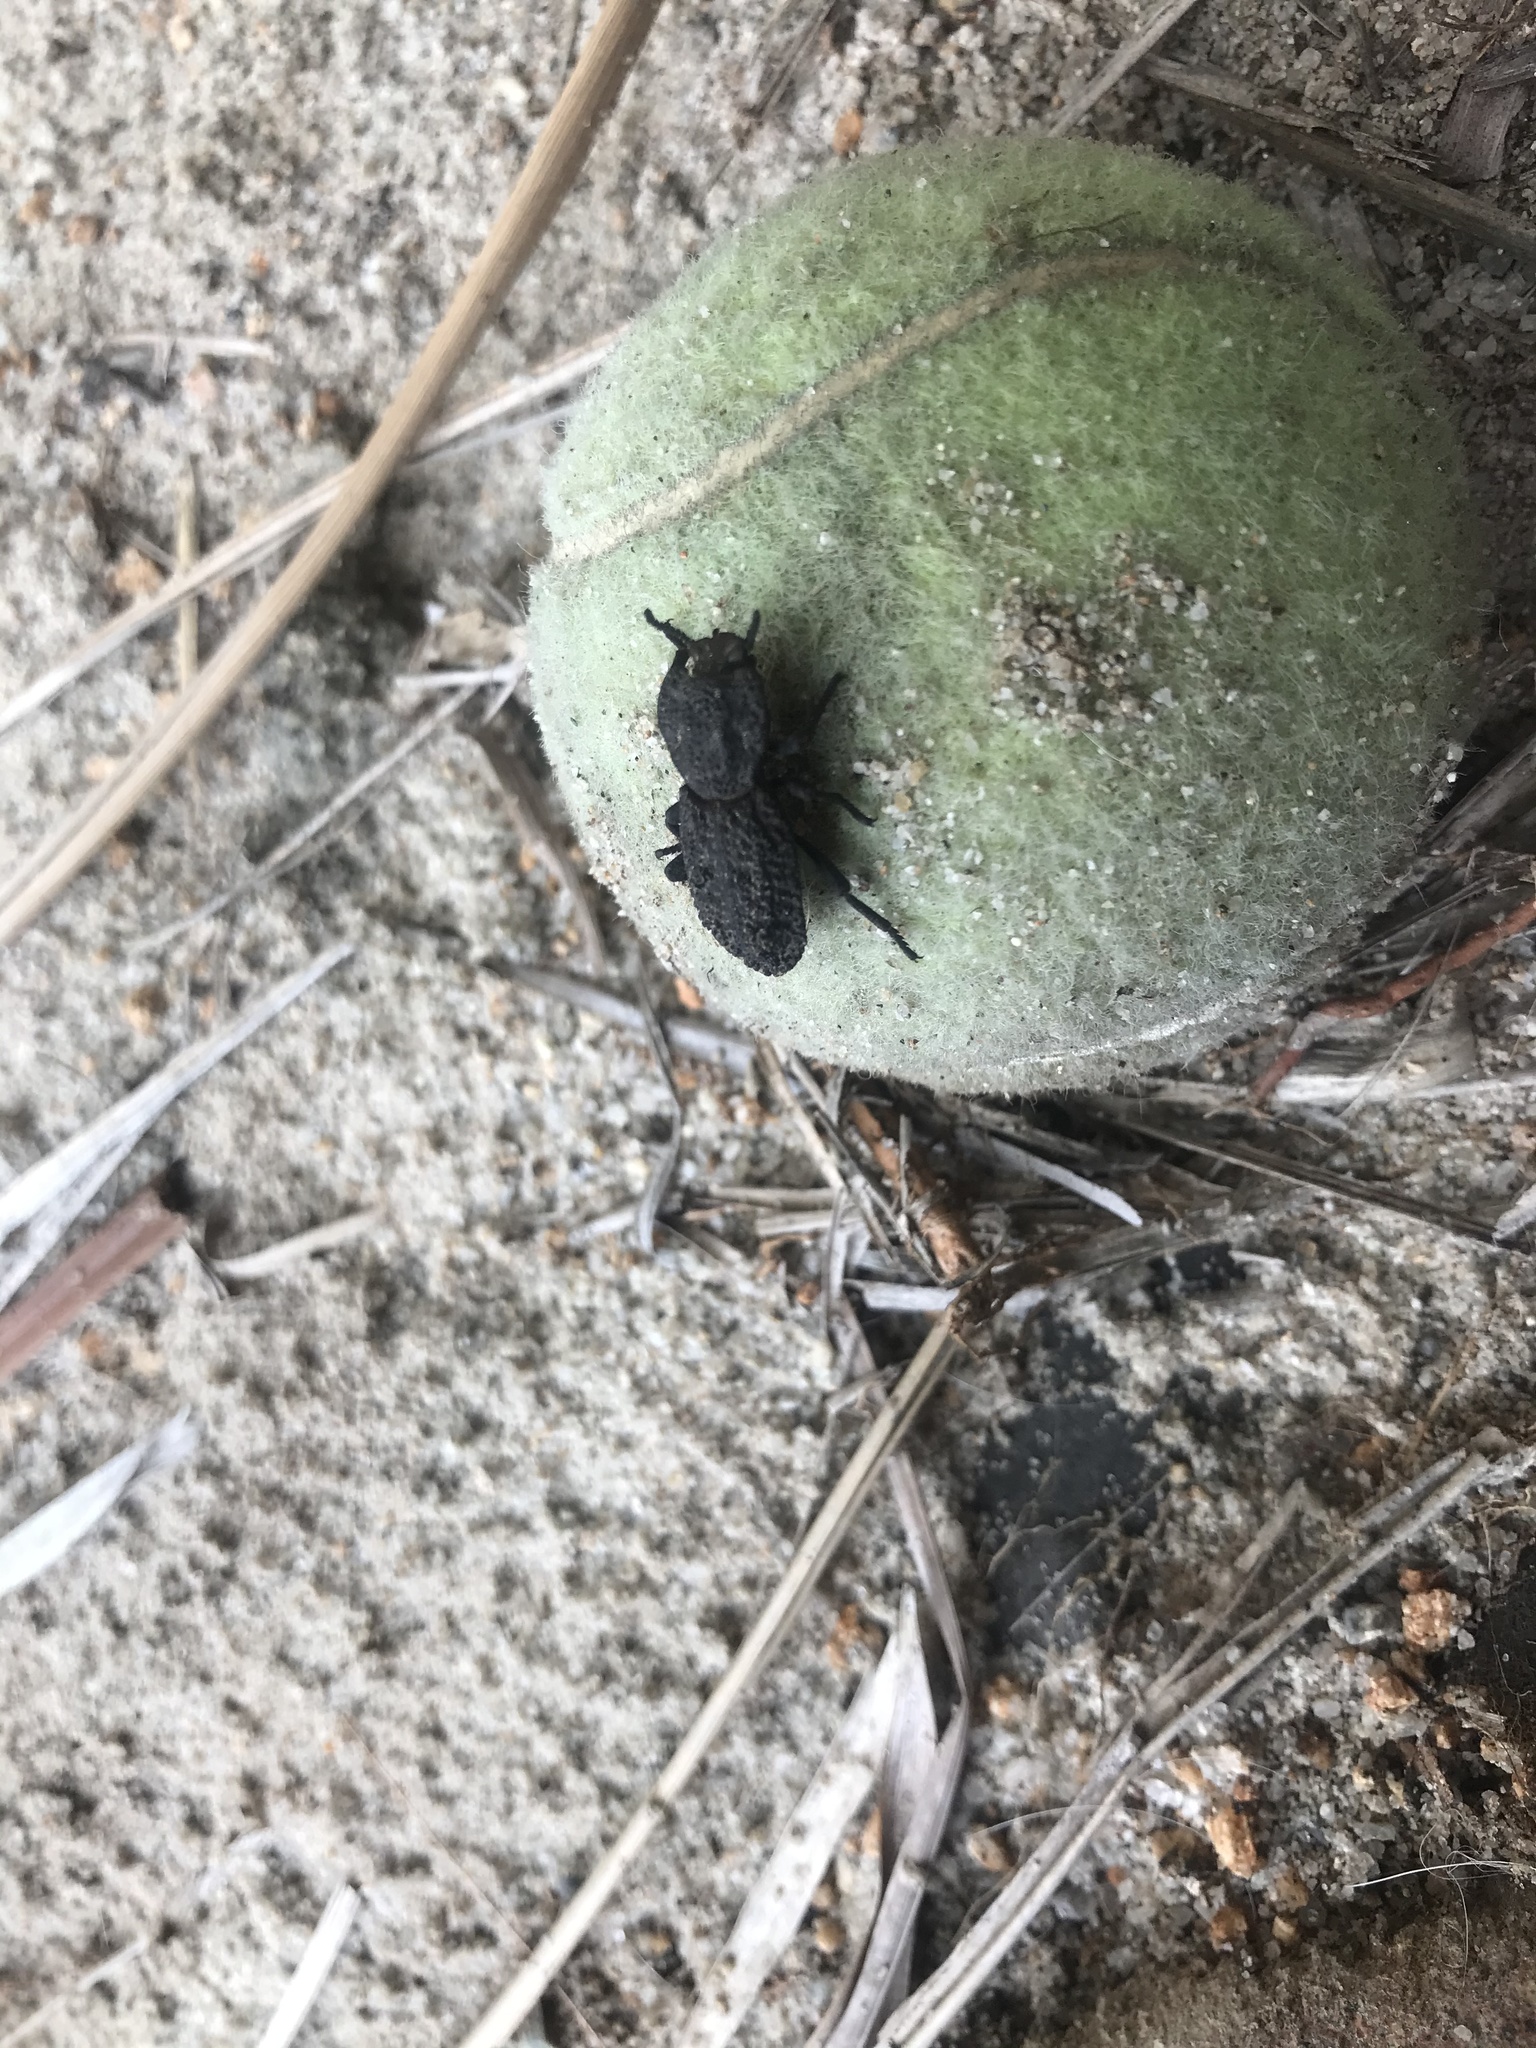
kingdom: Animalia
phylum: Arthropoda
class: Insecta
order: Coleoptera
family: Zopheridae
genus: Phloeodes
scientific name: Phloeodes diabolicus
